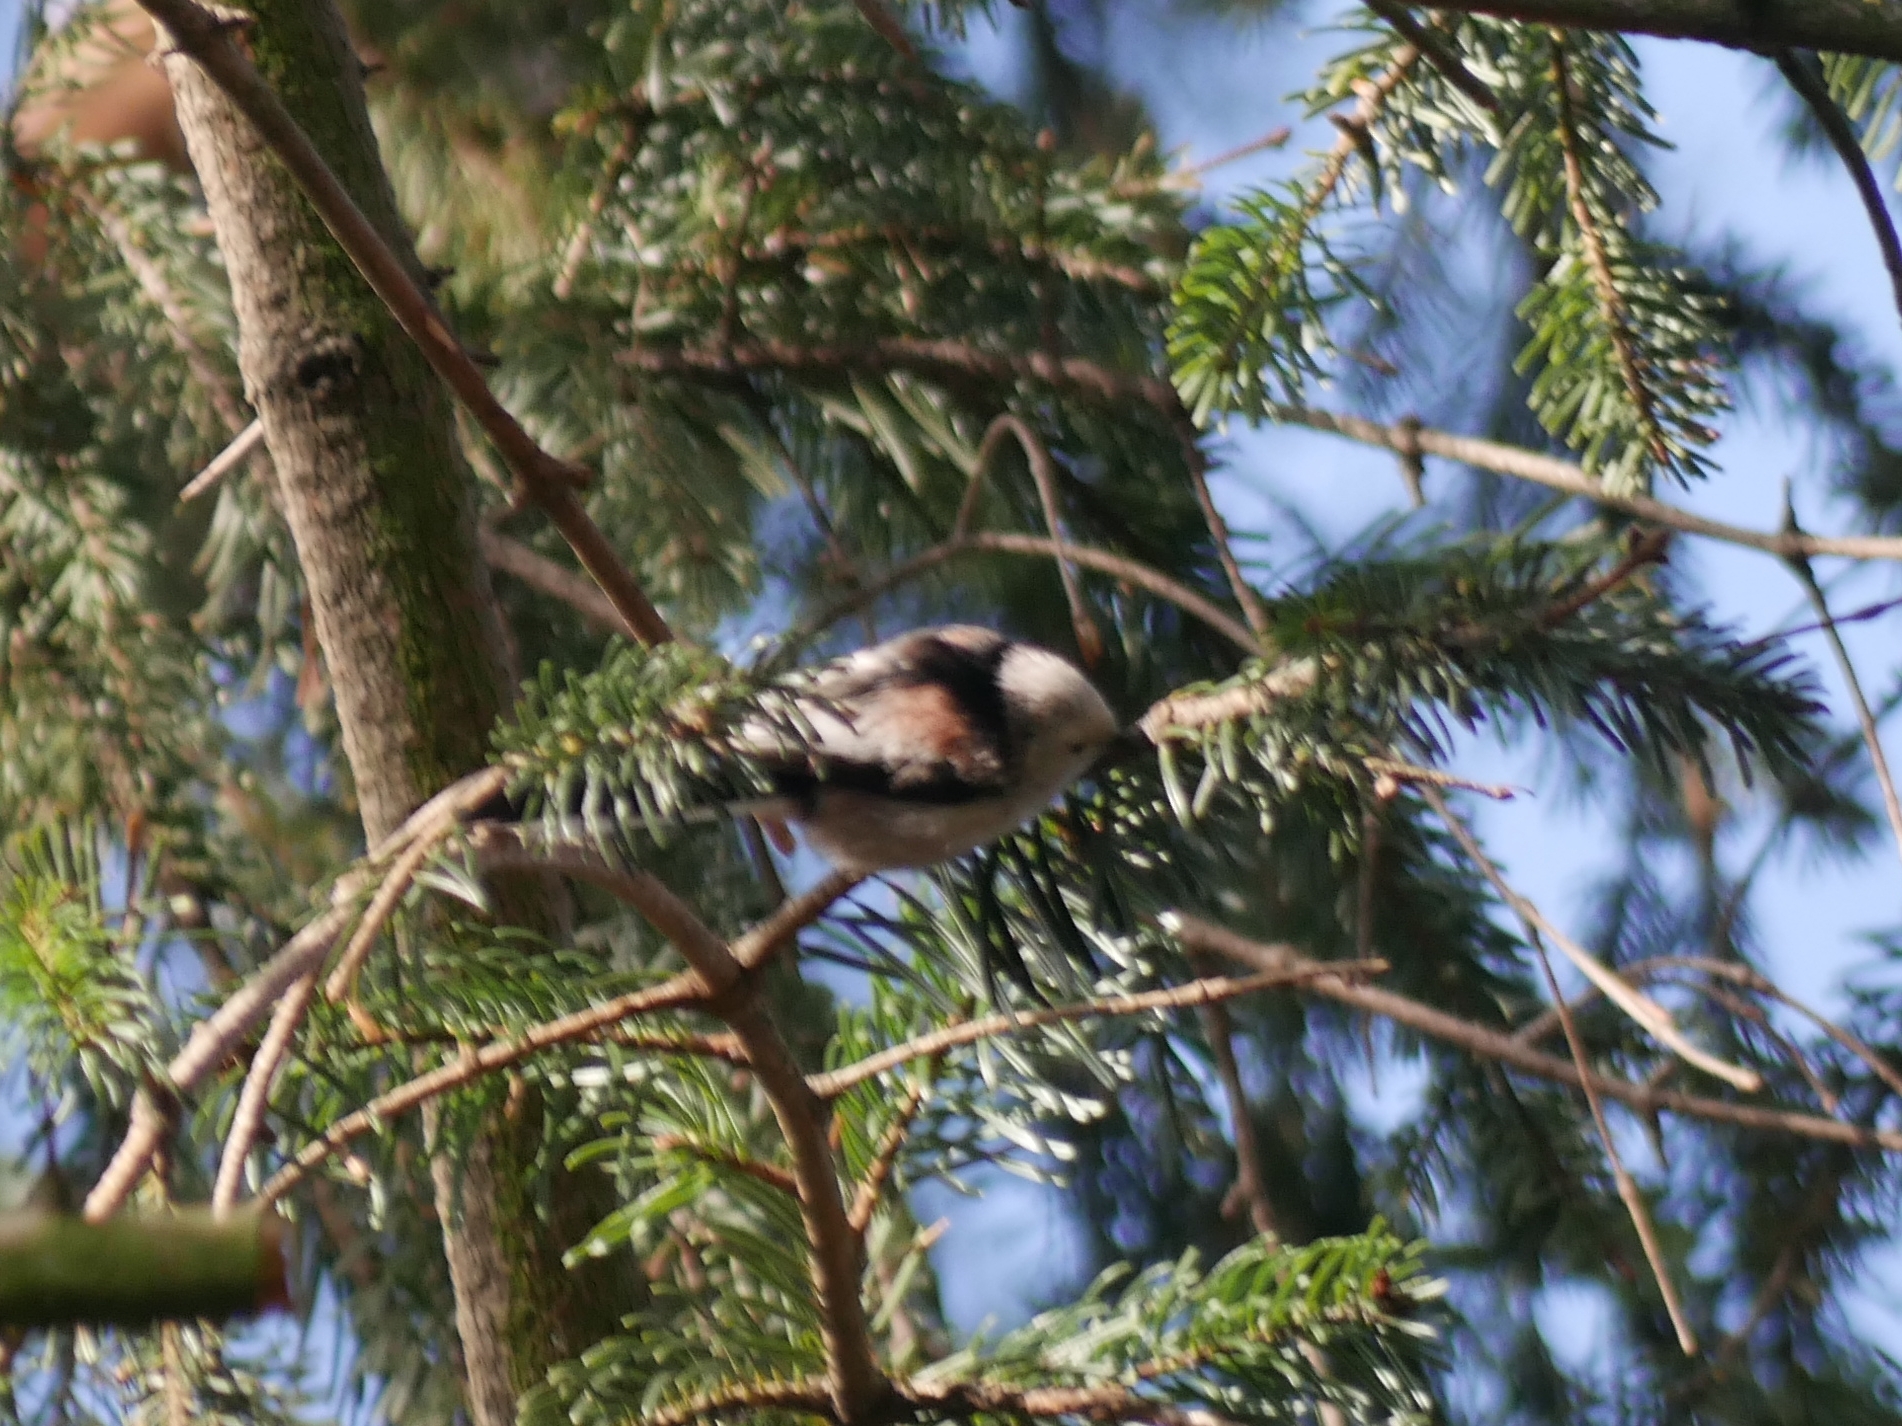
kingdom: Animalia
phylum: Chordata
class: Aves
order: Passeriformes
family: Aegithalidae
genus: Aegithalos
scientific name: Aegithalos caudatus
